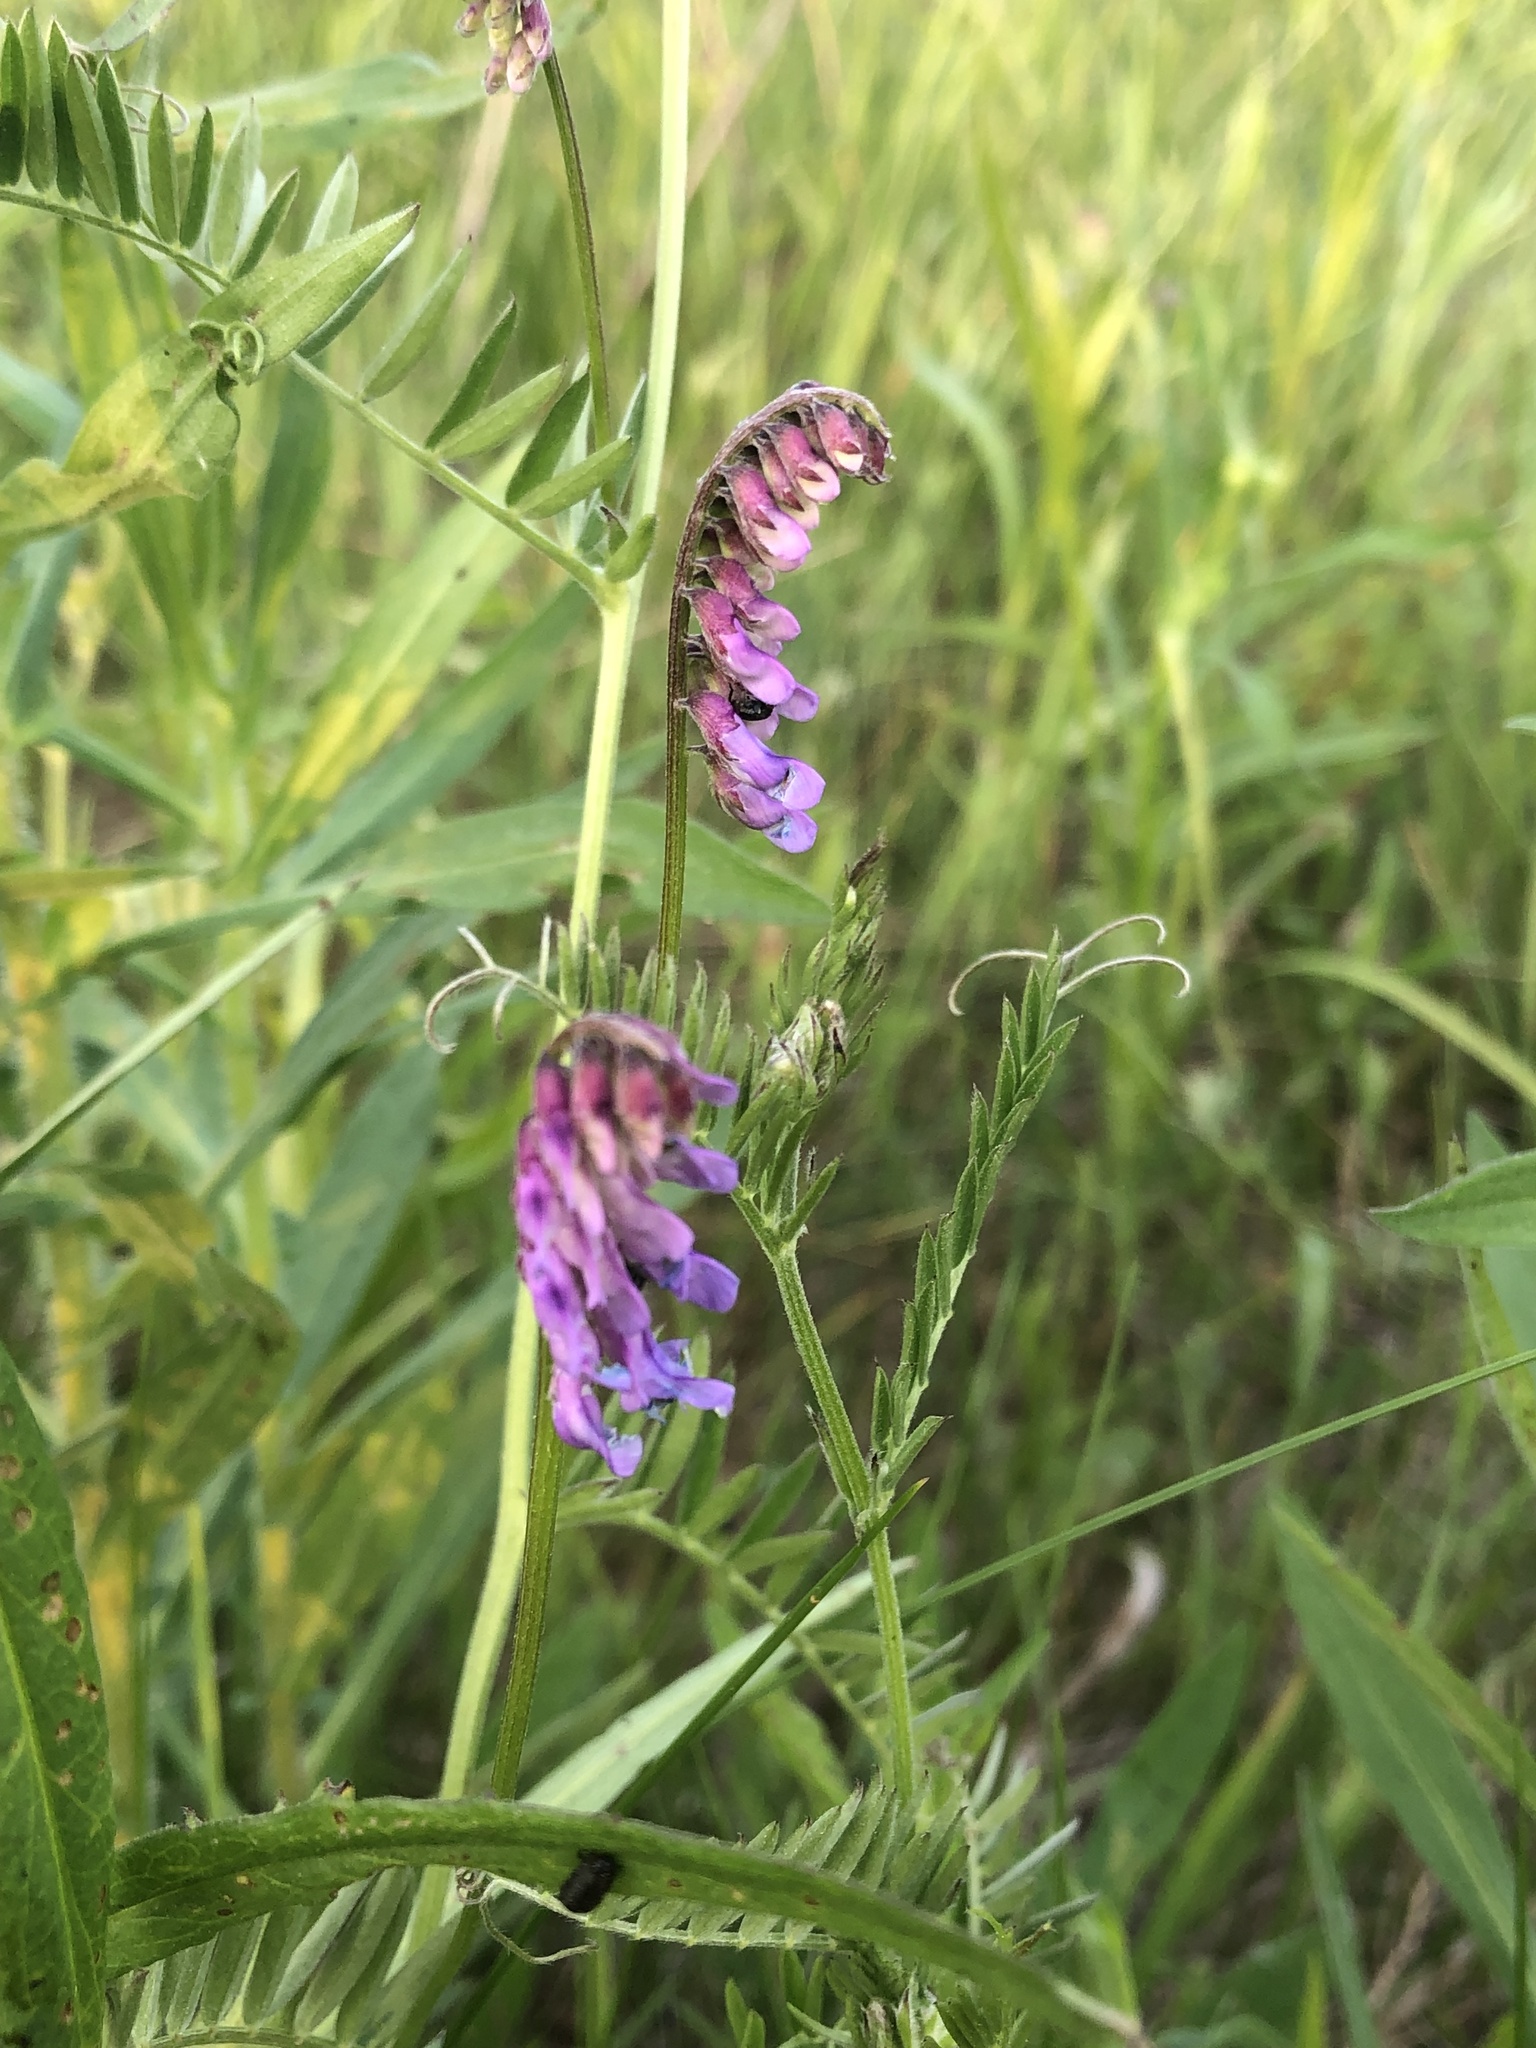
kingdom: Plantae
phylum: Tracheophyta
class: Magnoliopsida
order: Fabales
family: Fabaceae
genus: Vicia
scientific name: Vicia cracca
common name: Bird vetch
